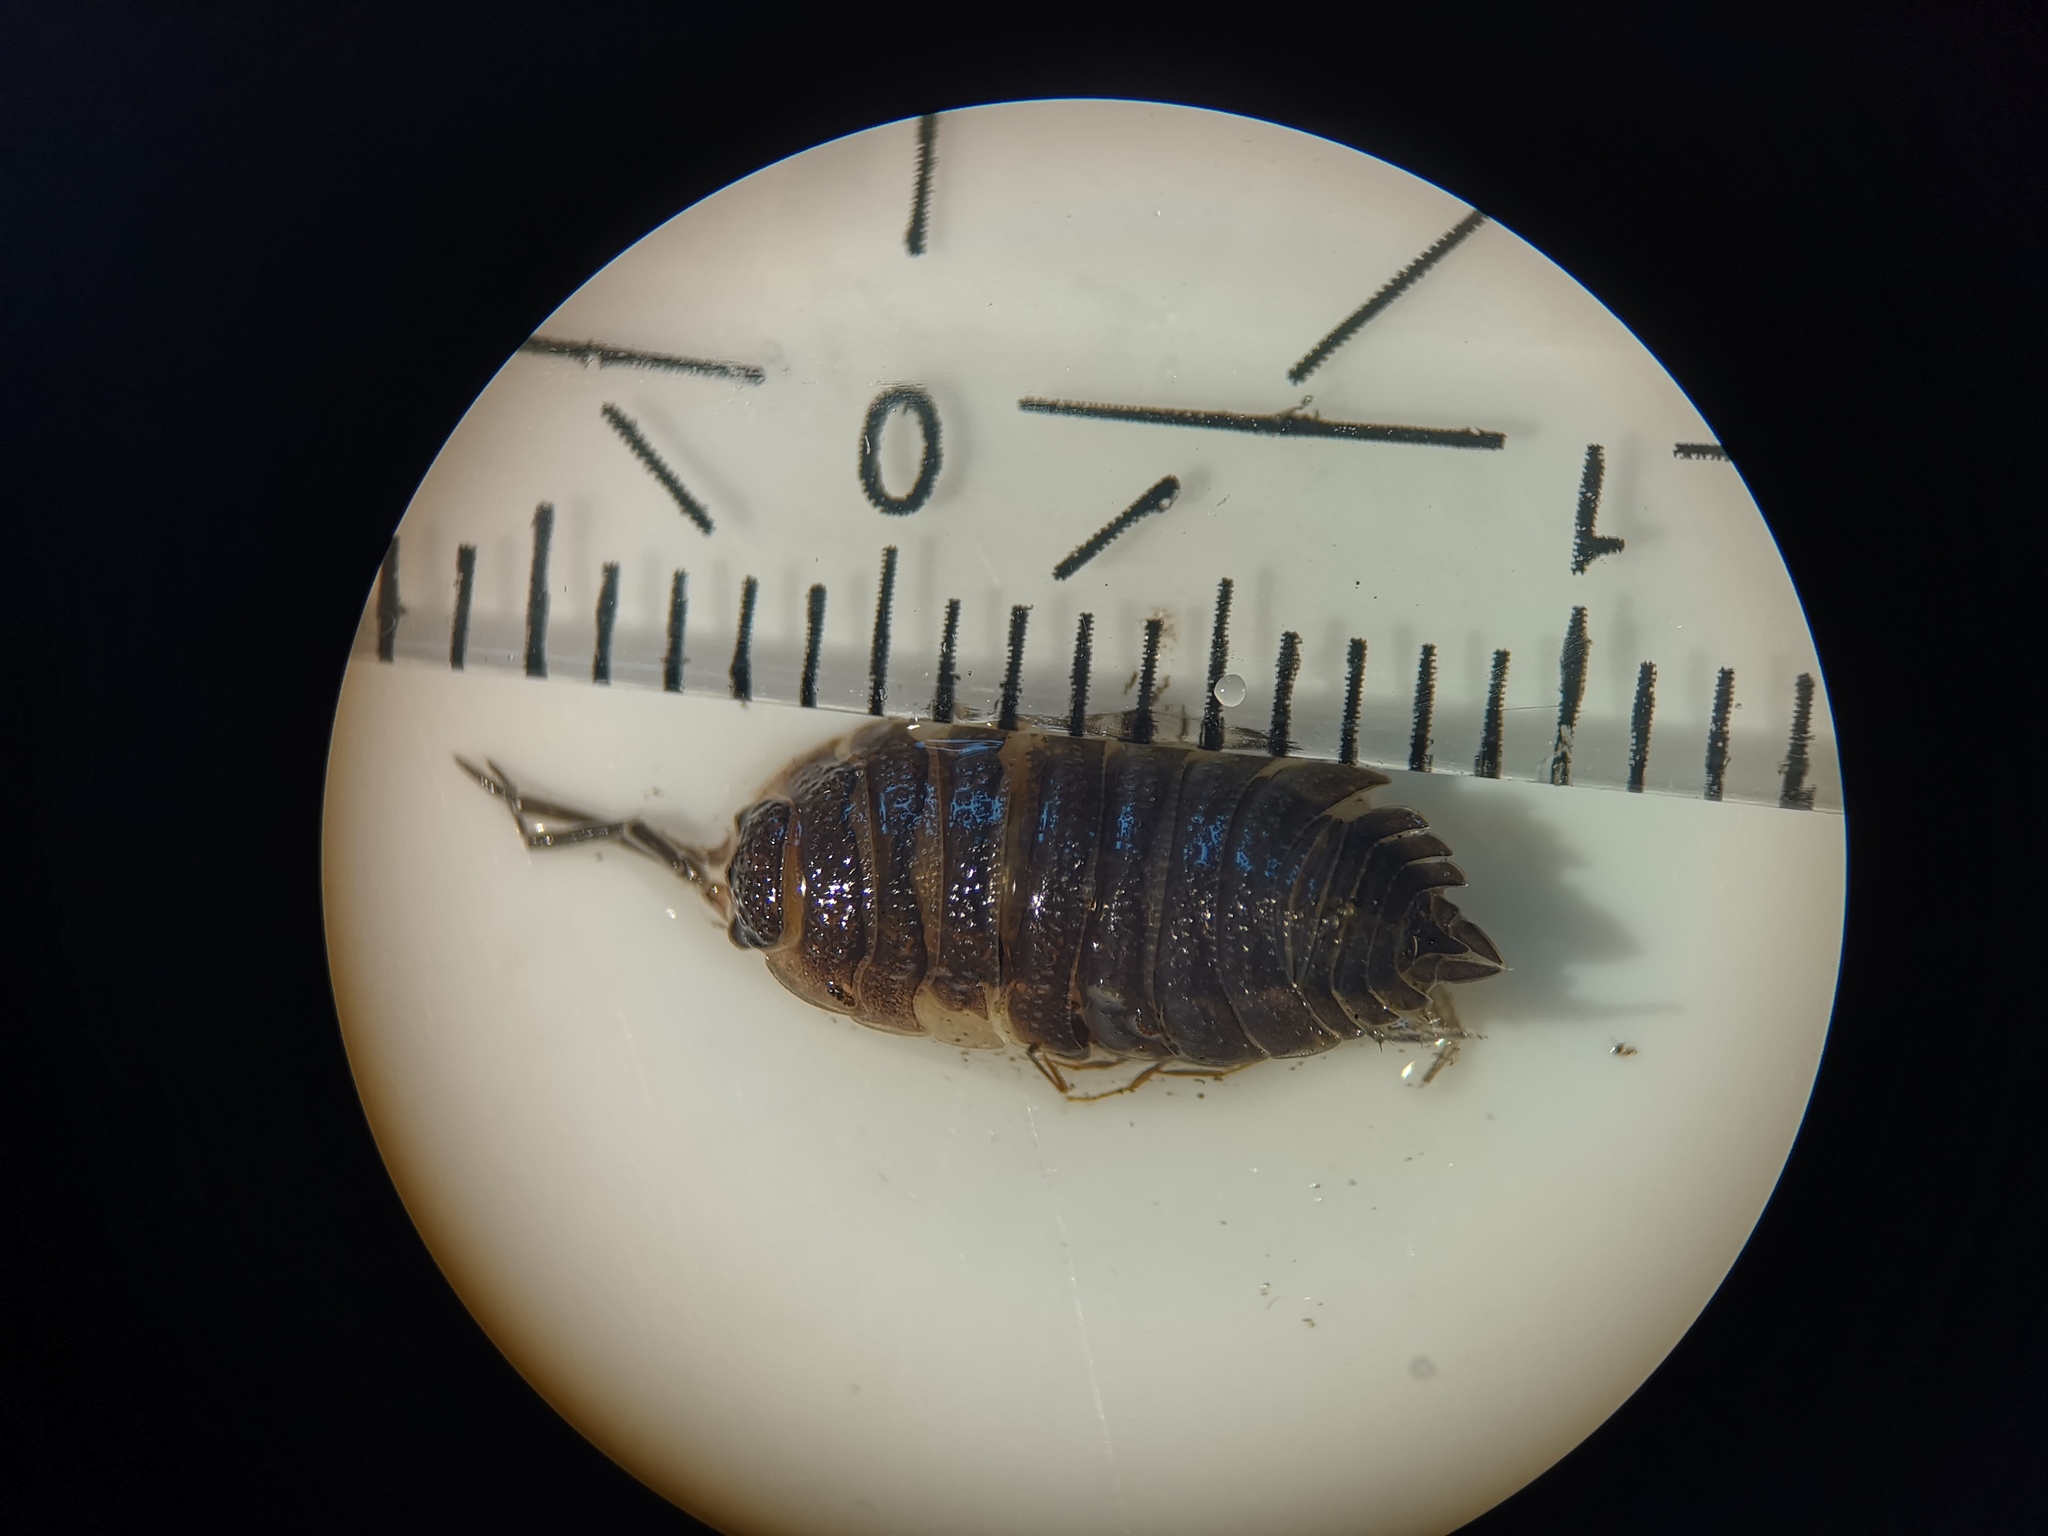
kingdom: Animalia
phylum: Arthropoda
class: Malacostraca
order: Isopoda
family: Porcellionidae
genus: Porcellio
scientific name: Porcellio scaber
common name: Common rough woodlouse
